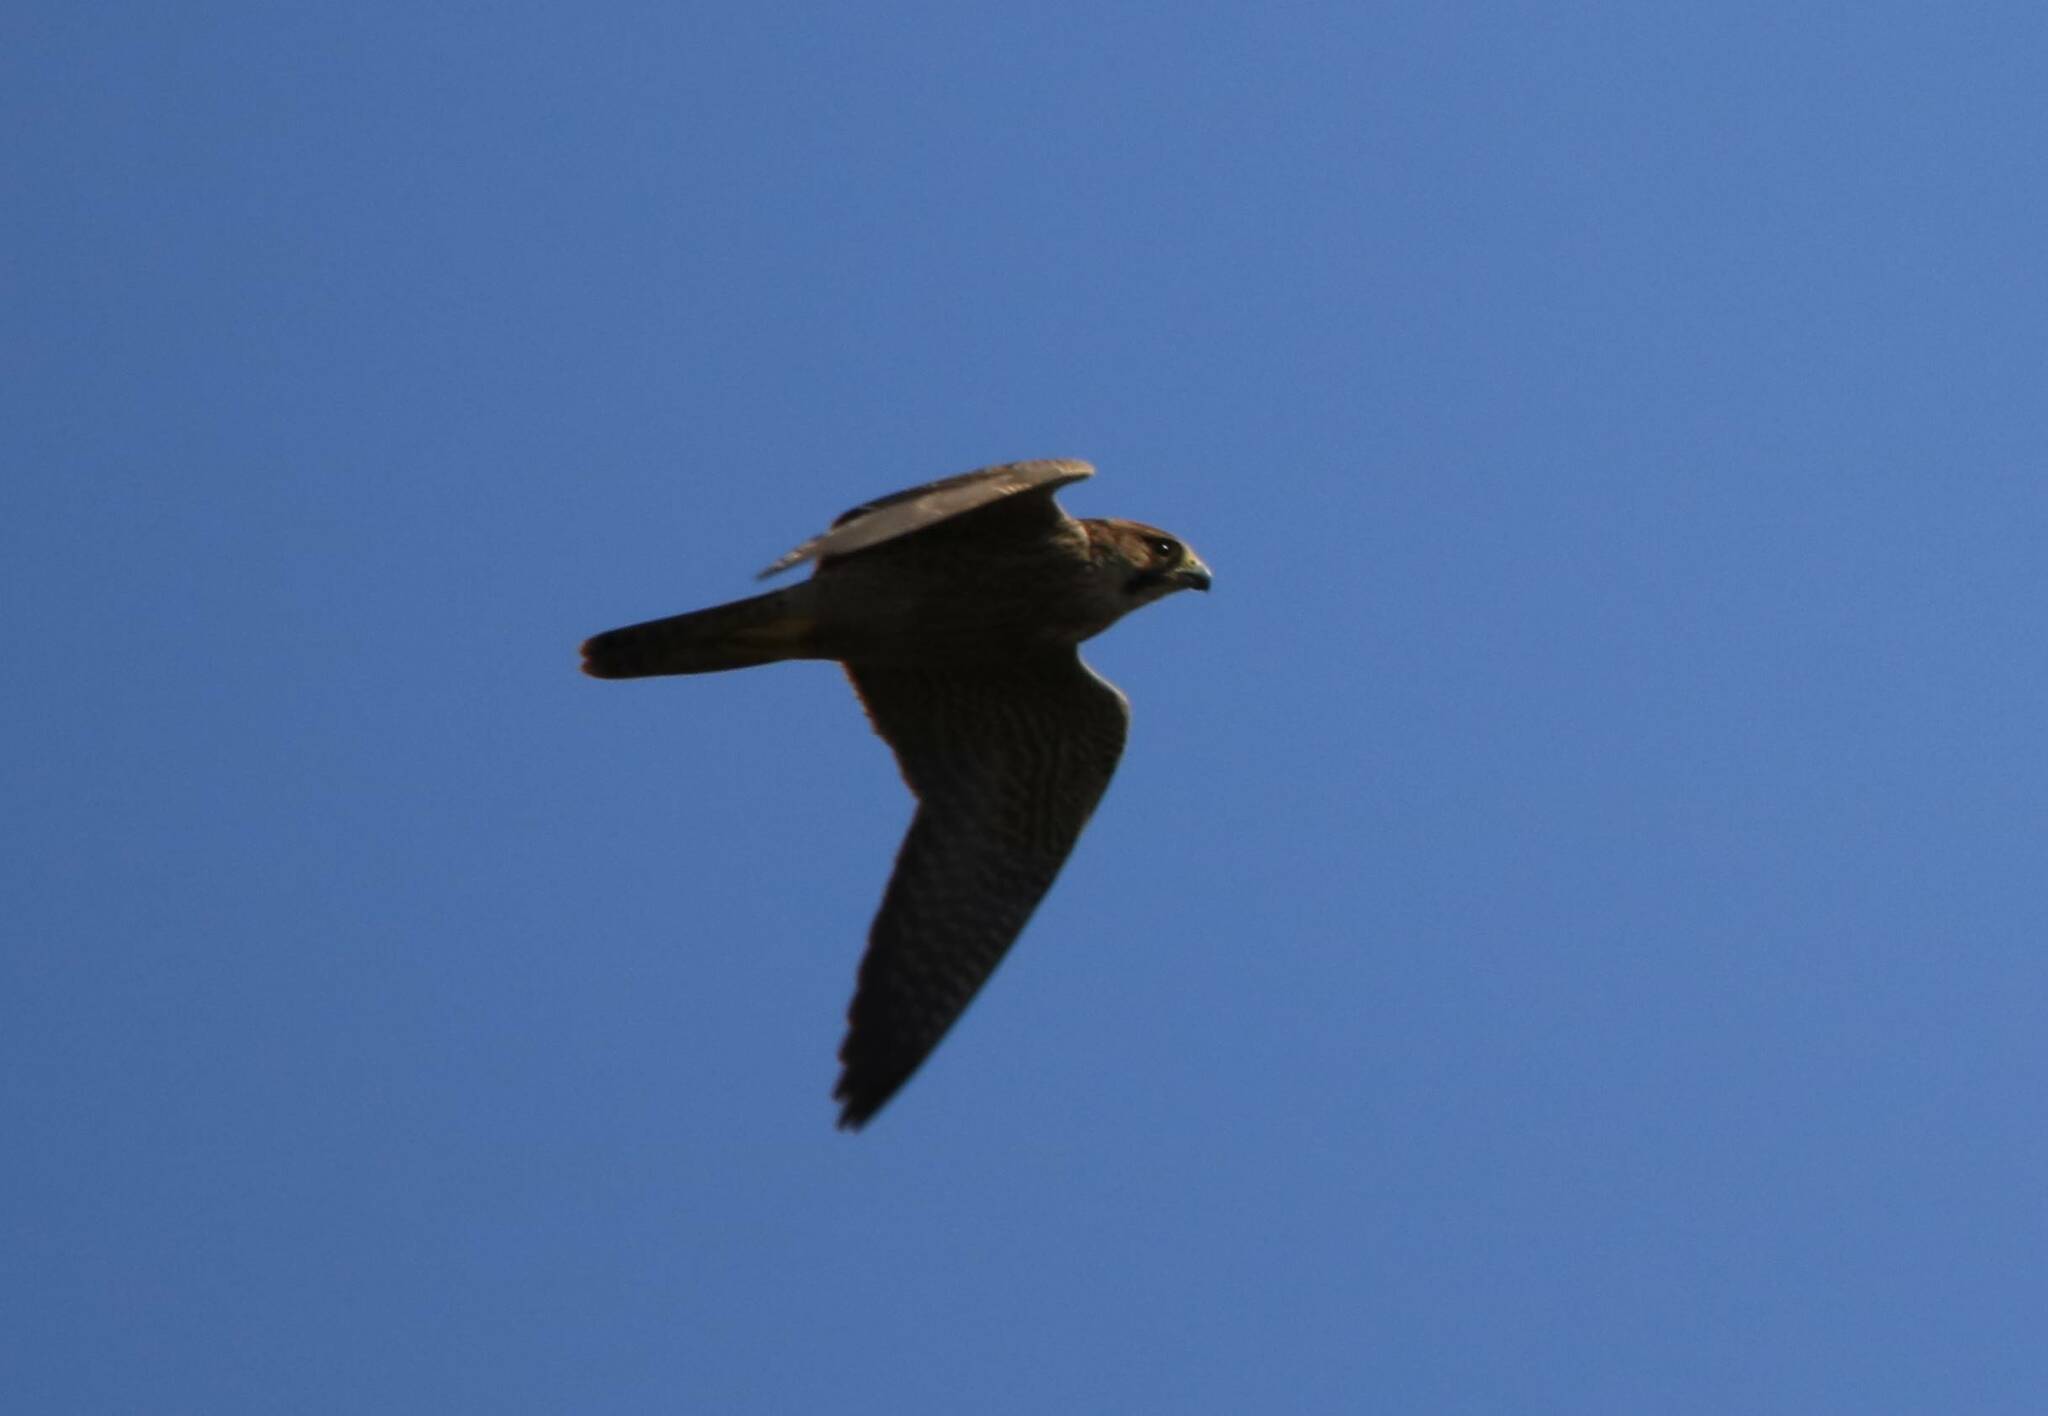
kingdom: Animalia
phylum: Chordata
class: Aves
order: Falconiformes
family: Falconidae
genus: Falco
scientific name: Falco biarmicus
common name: Lanner falcon
